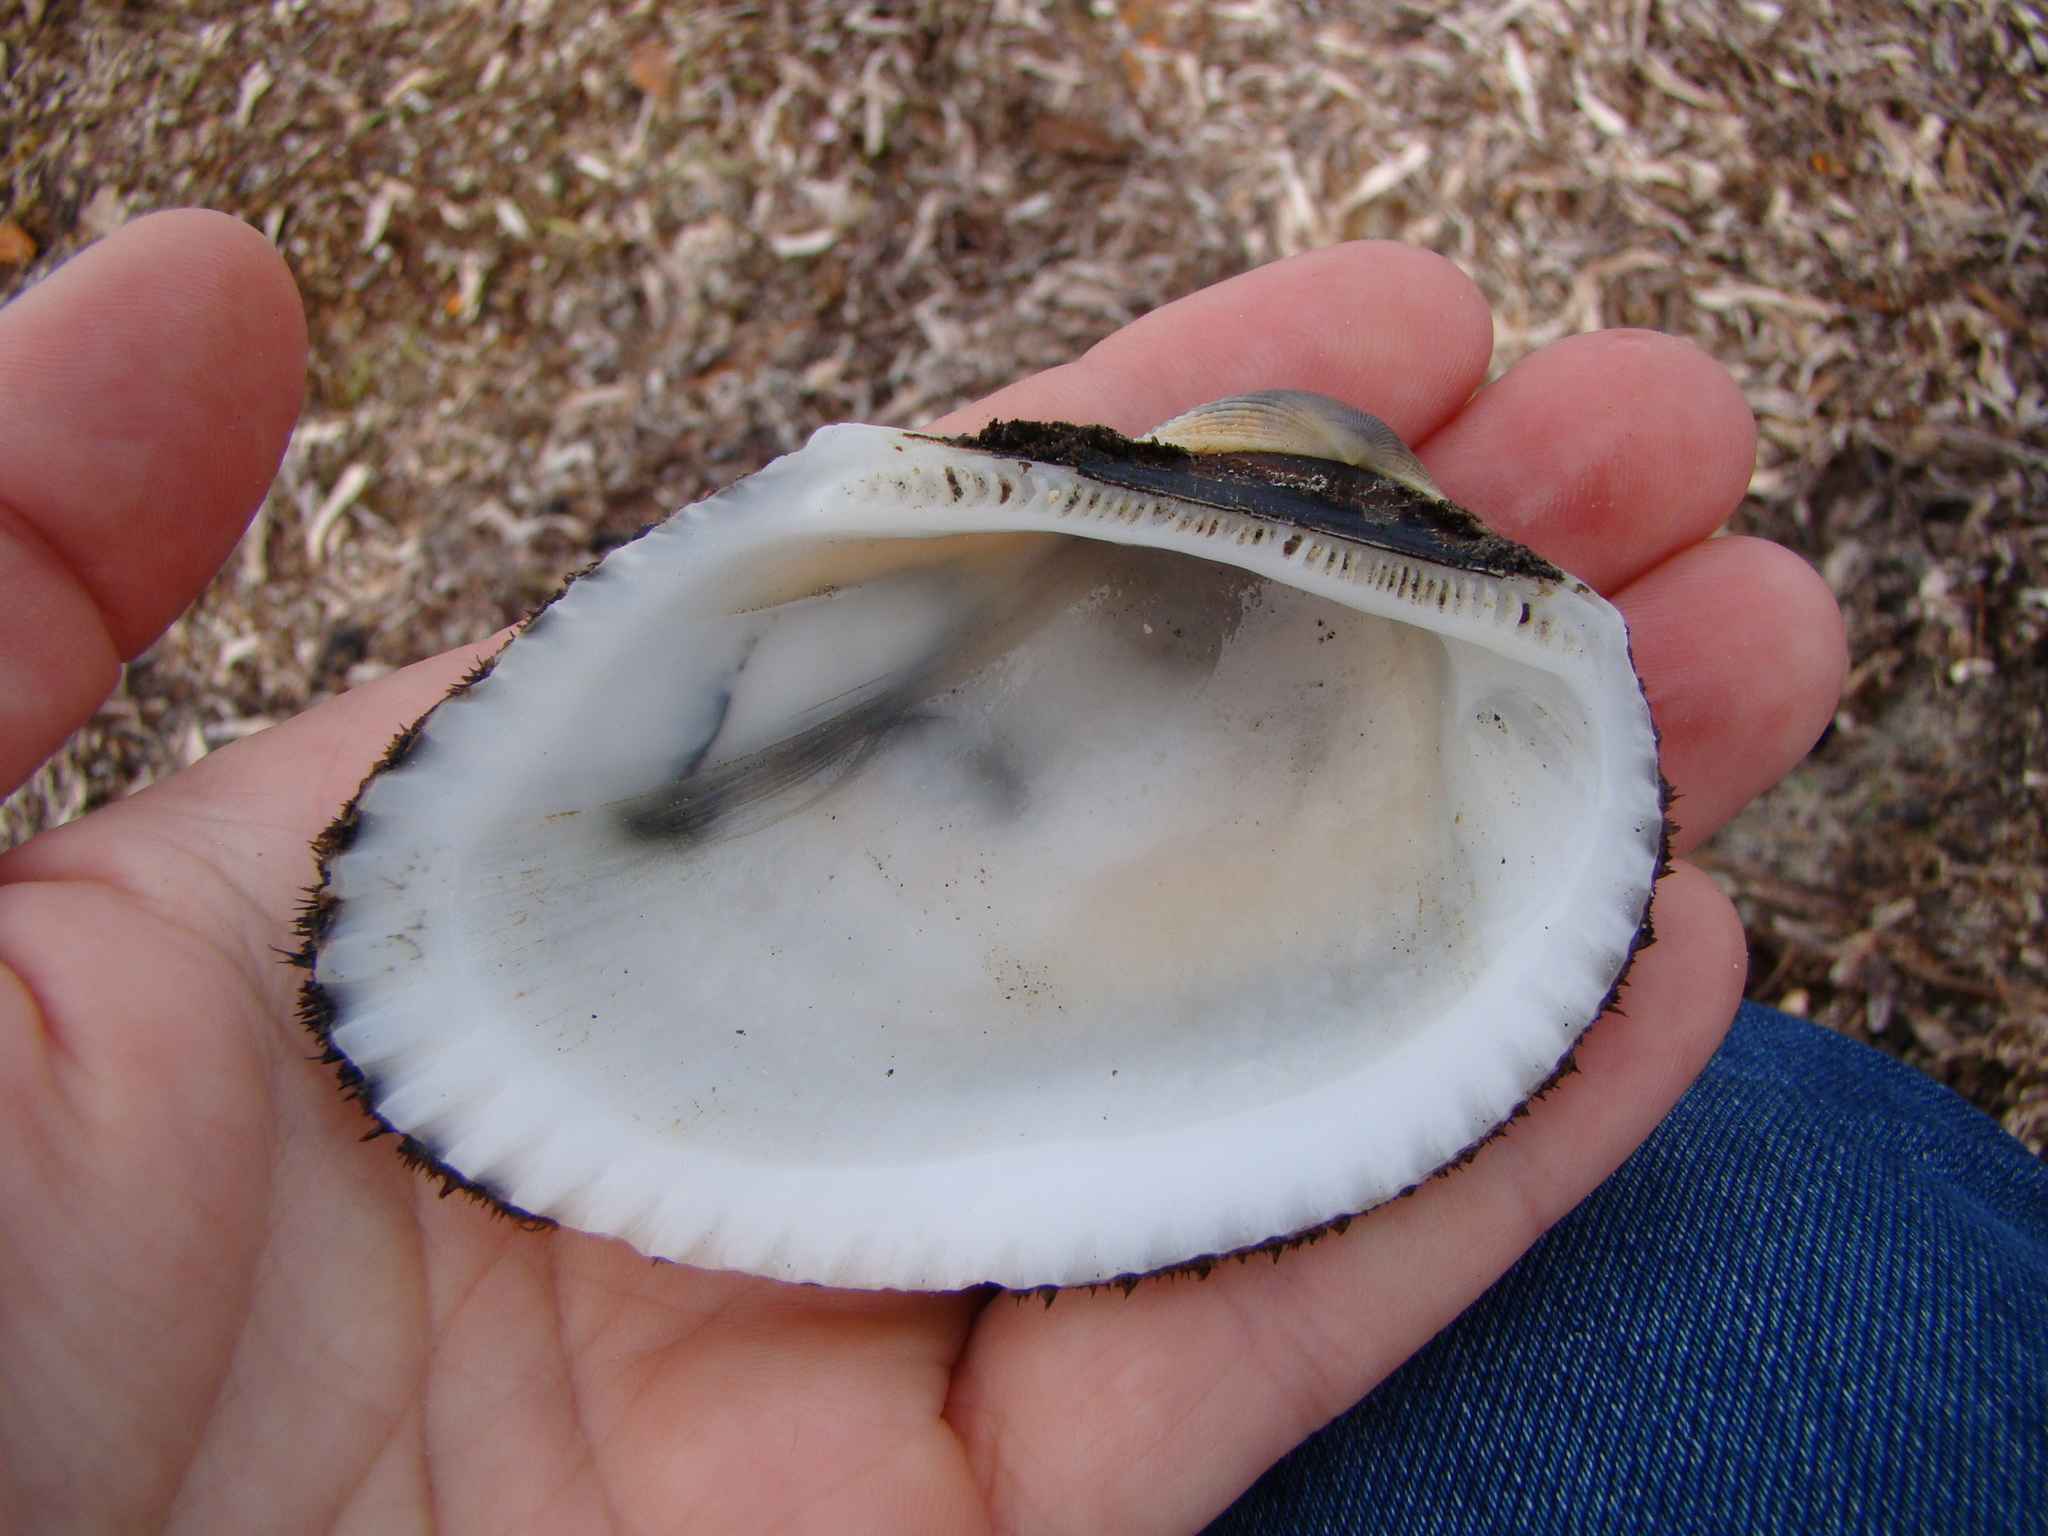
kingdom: Animalia
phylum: Mollusca
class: Bivalvia
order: Arcida
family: Arcidae
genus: Anadara
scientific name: Anadara antiquata
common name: Antique ark
